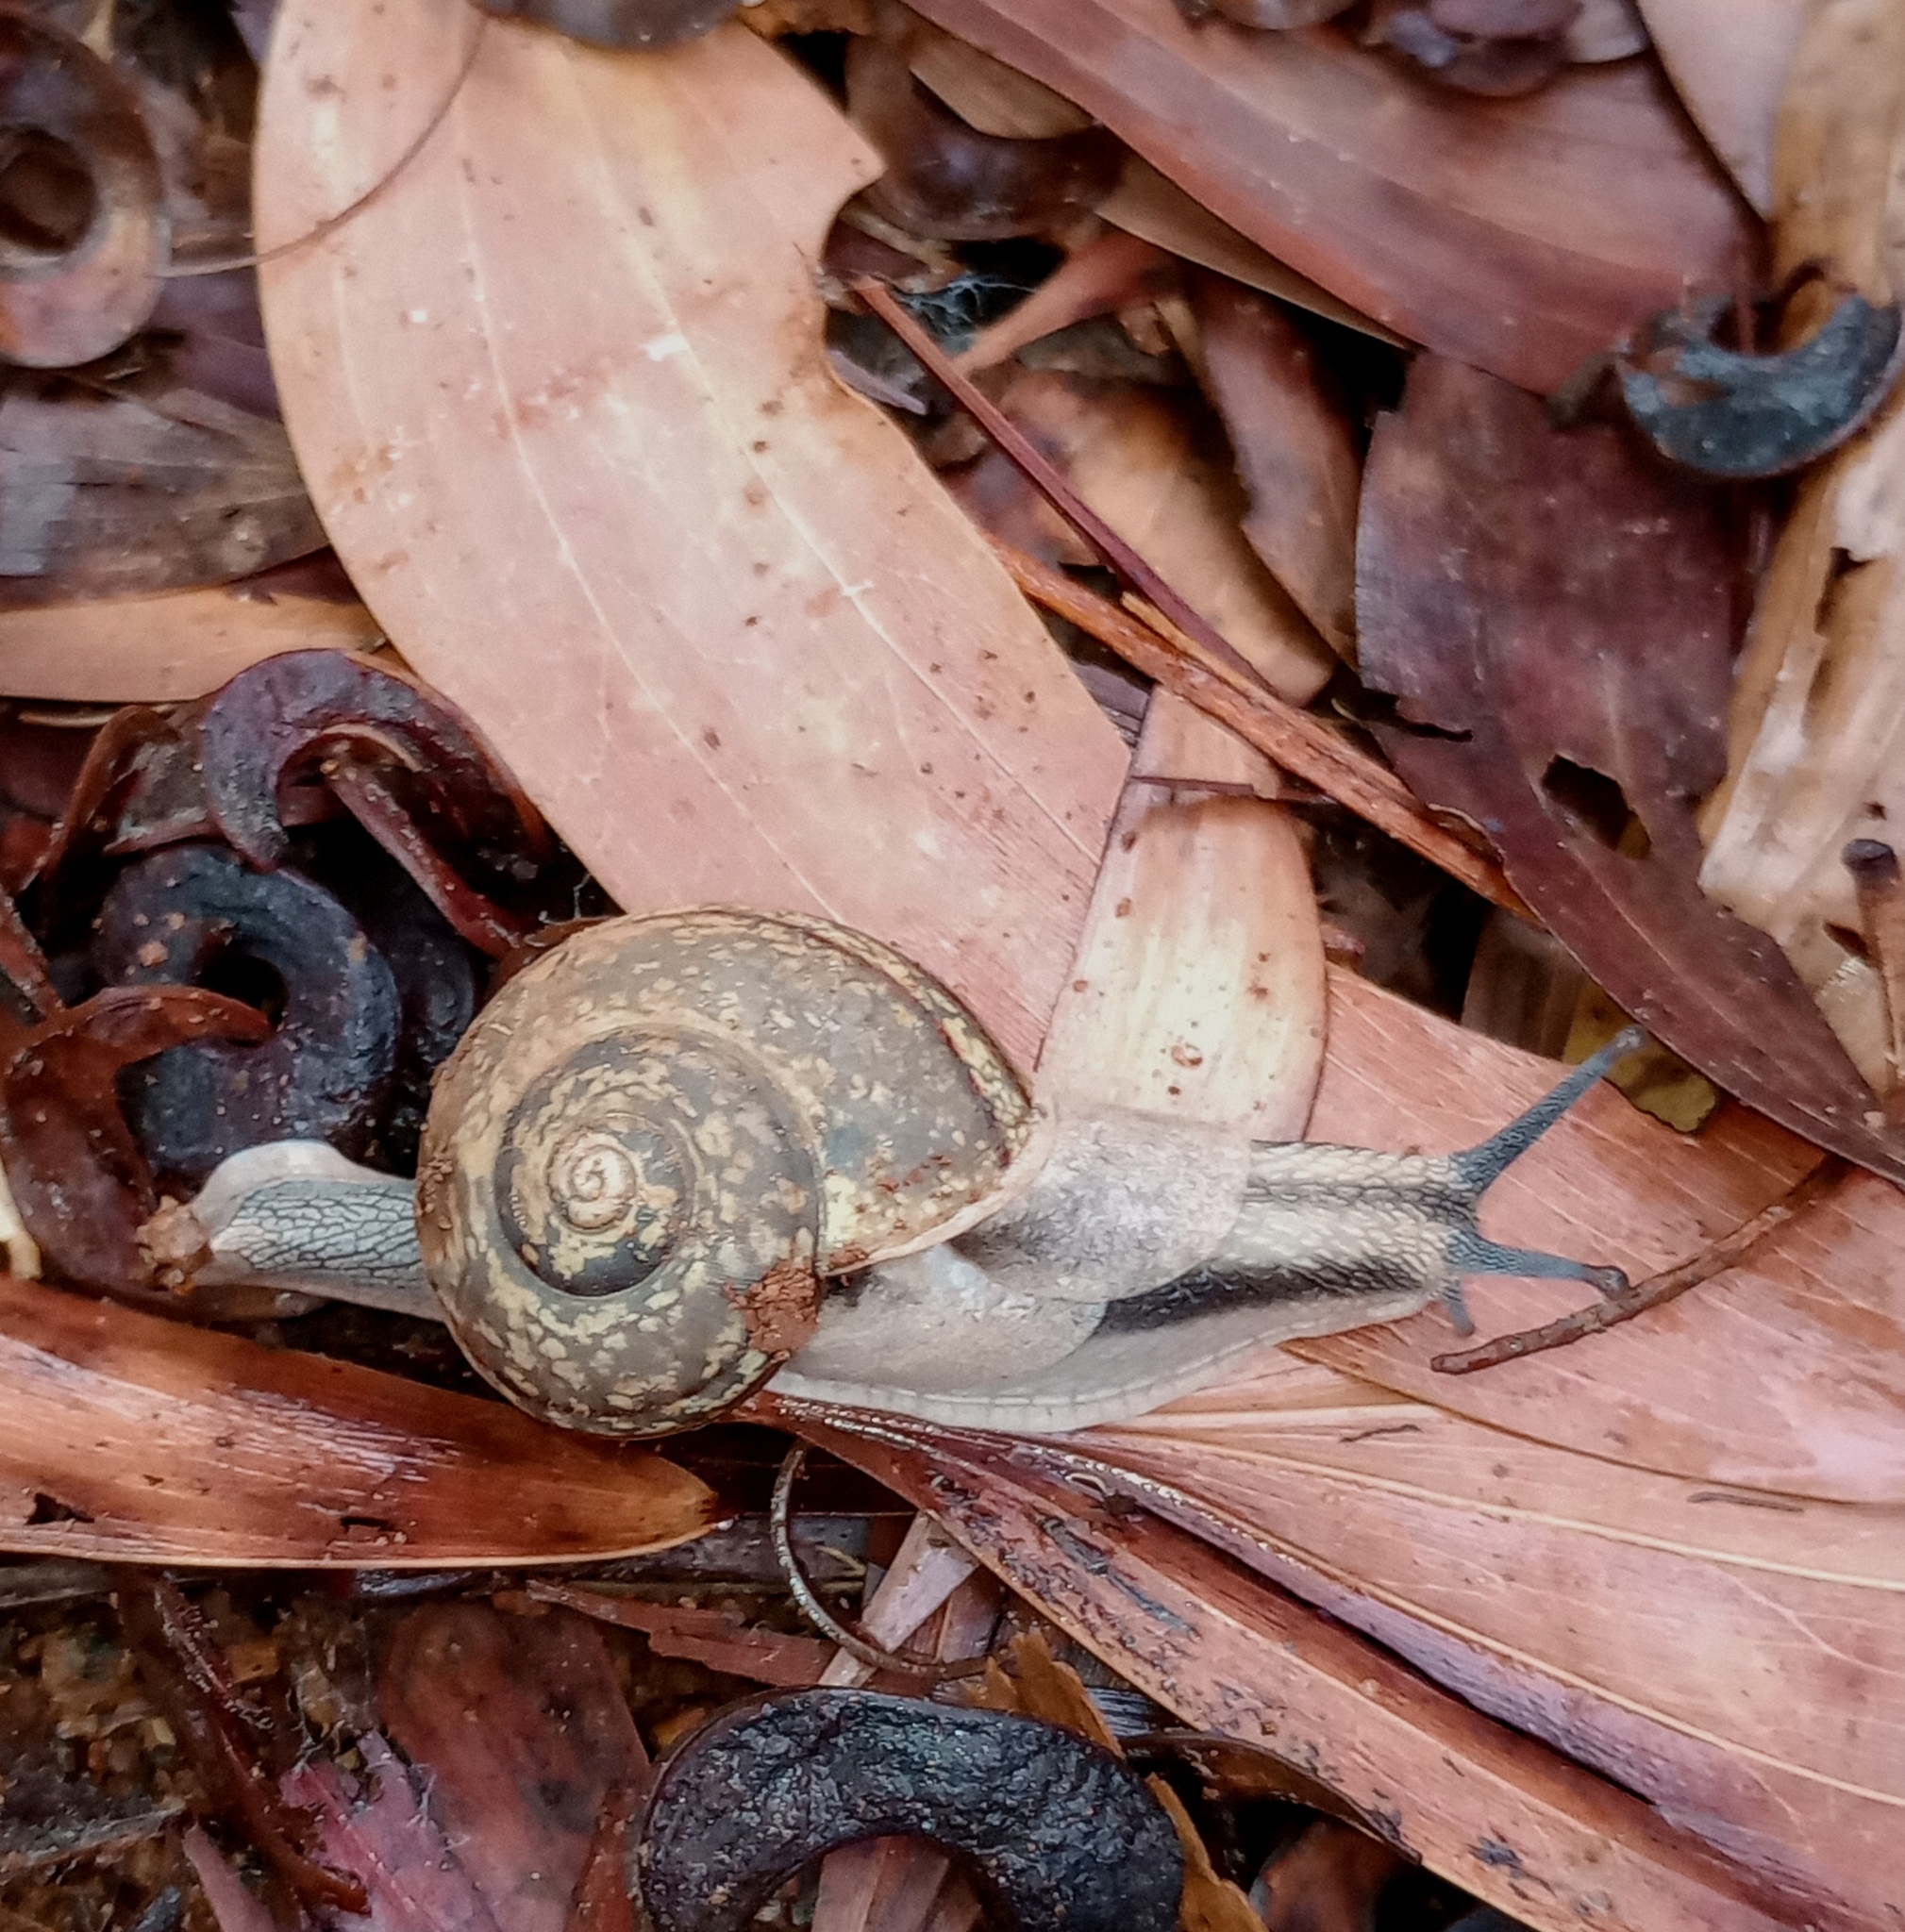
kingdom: Animalia
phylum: Mollusca
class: Gastropoda
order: Stylommatophora
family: Ariophantidae
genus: Ariophanta
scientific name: Ariophanta exilis
